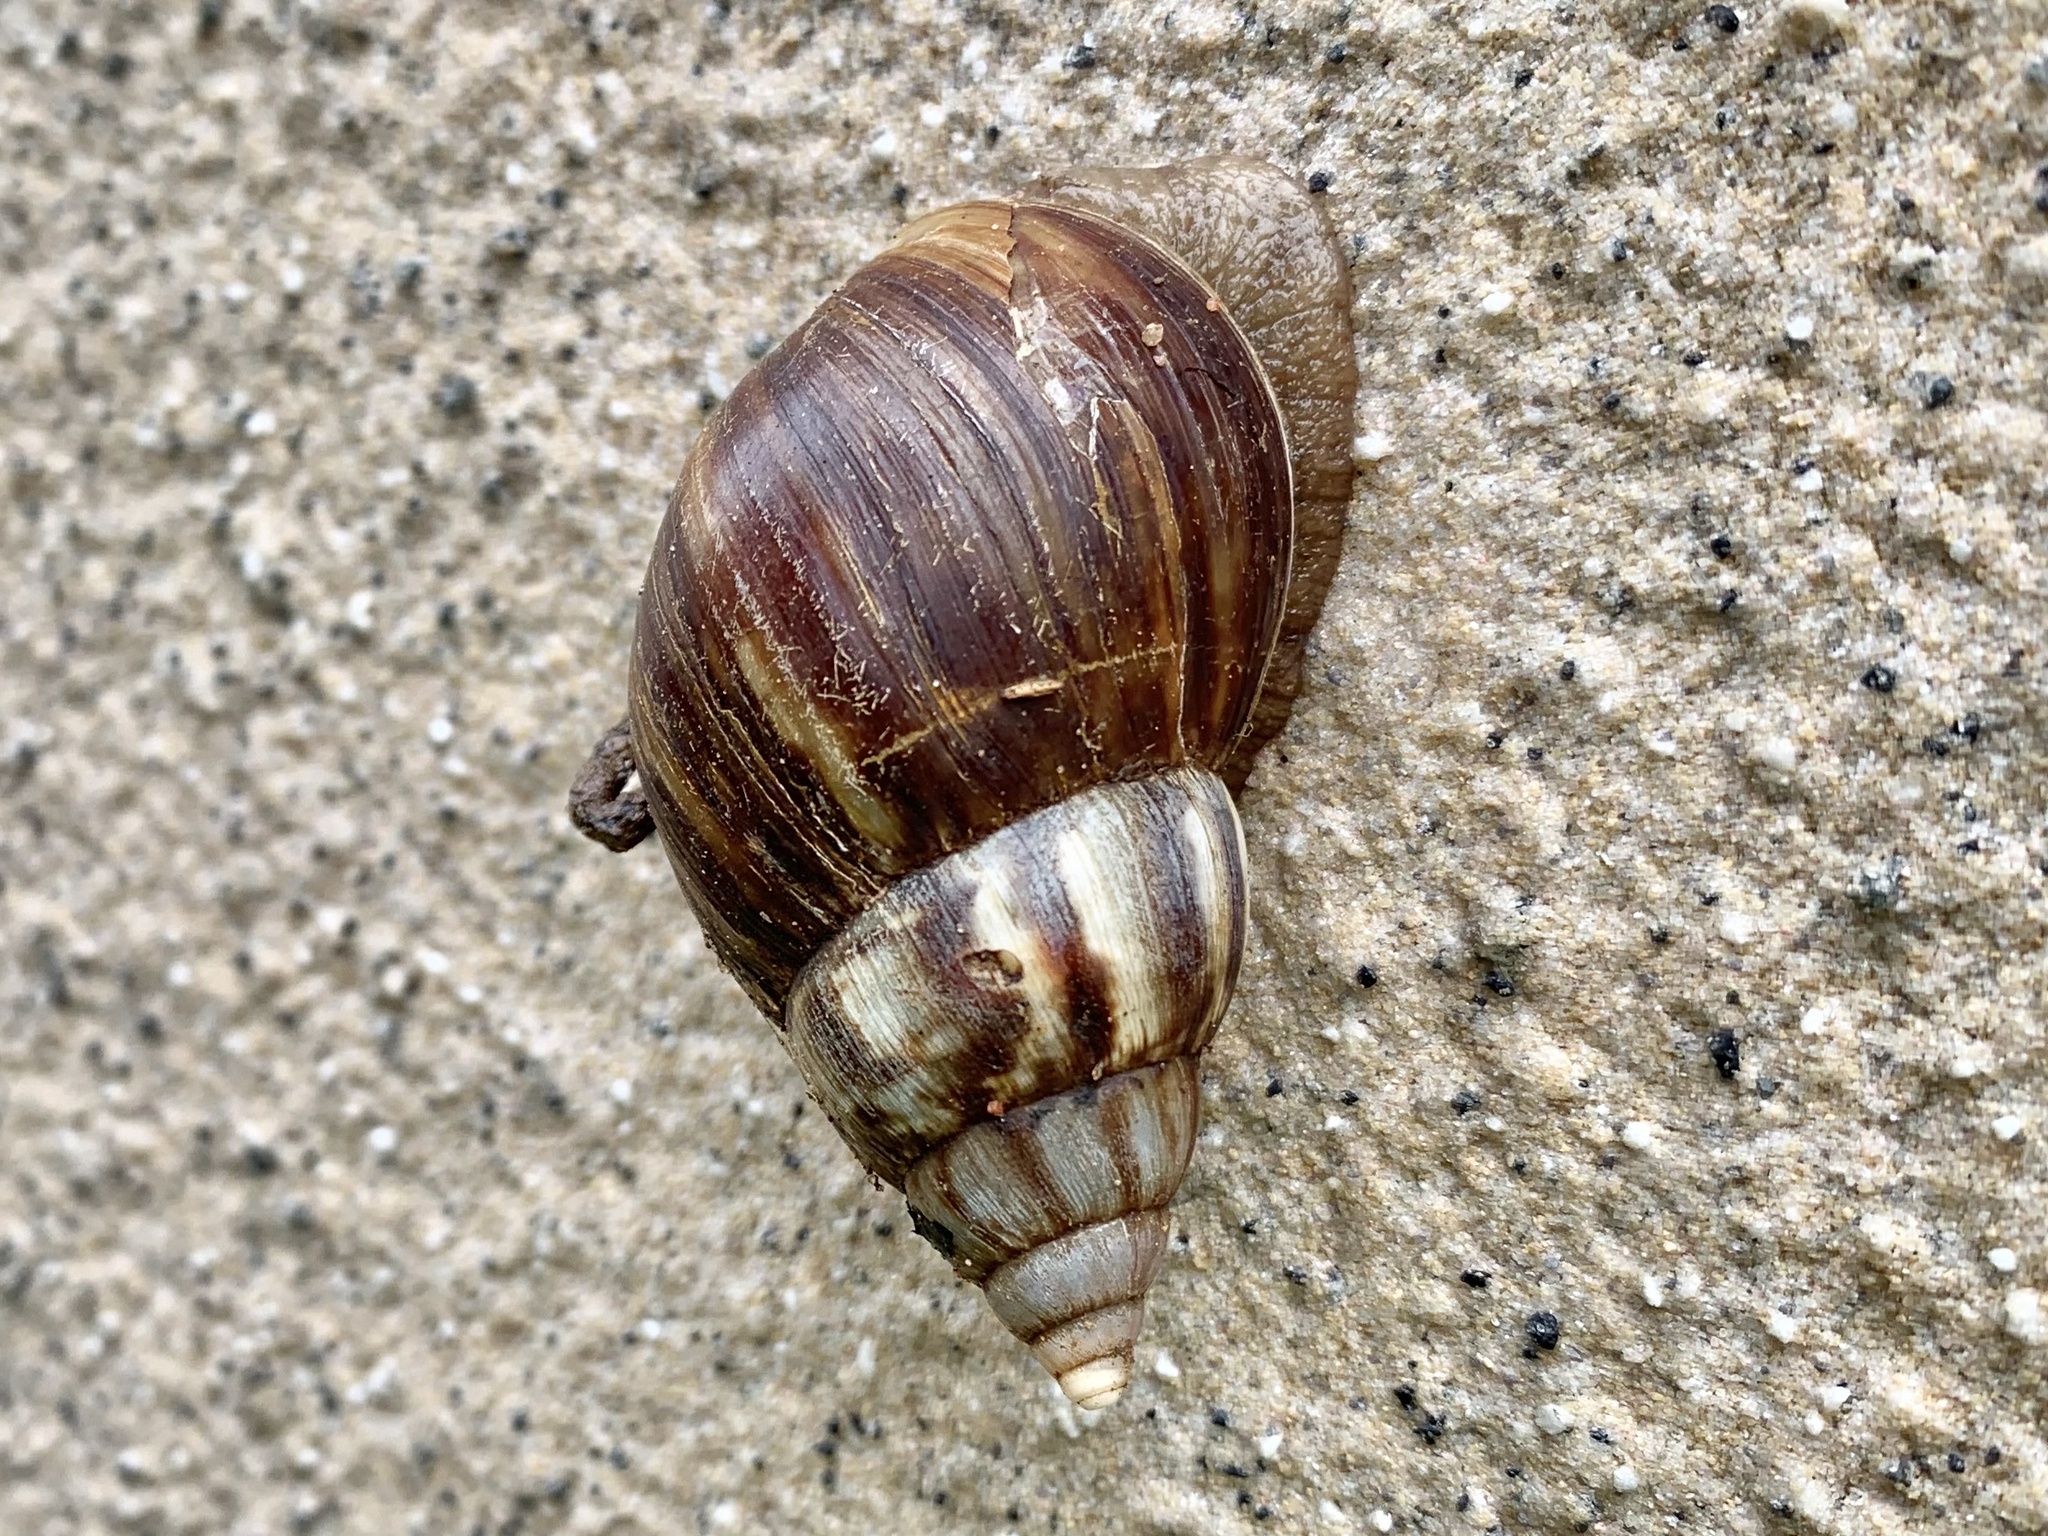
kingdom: Animalia
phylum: Mollusca
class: Gastropoda
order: Stylommatophora
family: Achatinidae
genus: Lissachatina
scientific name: Lissachatina fulica
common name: Giant african snail
